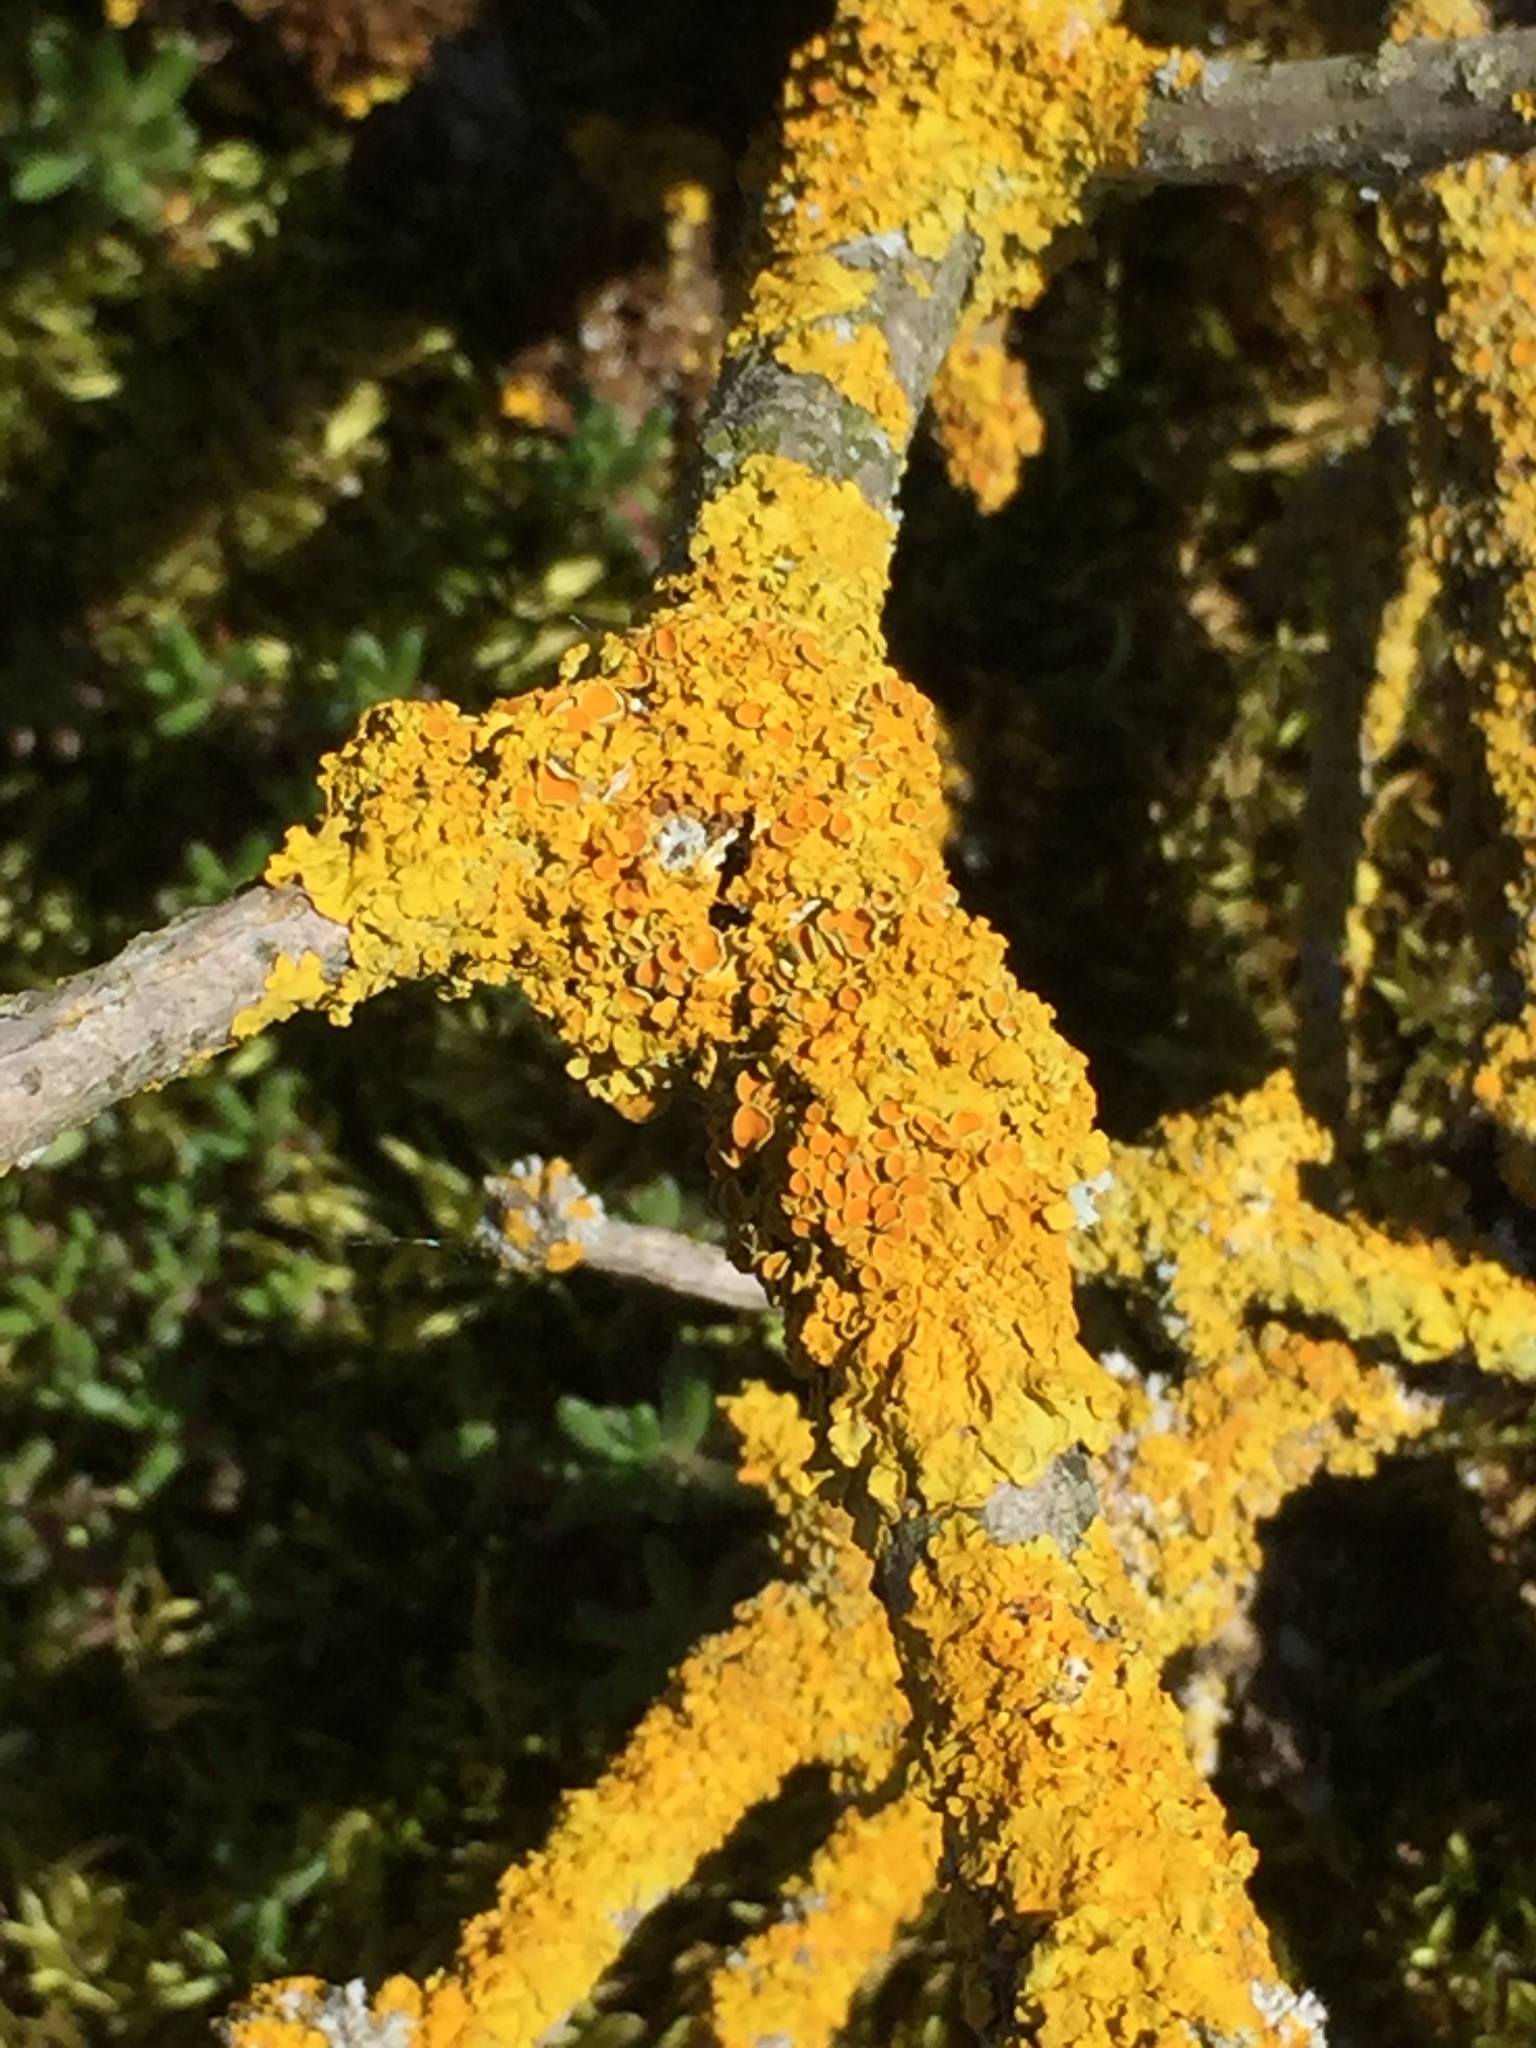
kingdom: Fungi
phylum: Ascomycota
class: Lecanoromycetes
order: Teloschistales
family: Teloschistaceae
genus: Xanthoria
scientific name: Xanthoria parietina
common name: Common orange lichen
